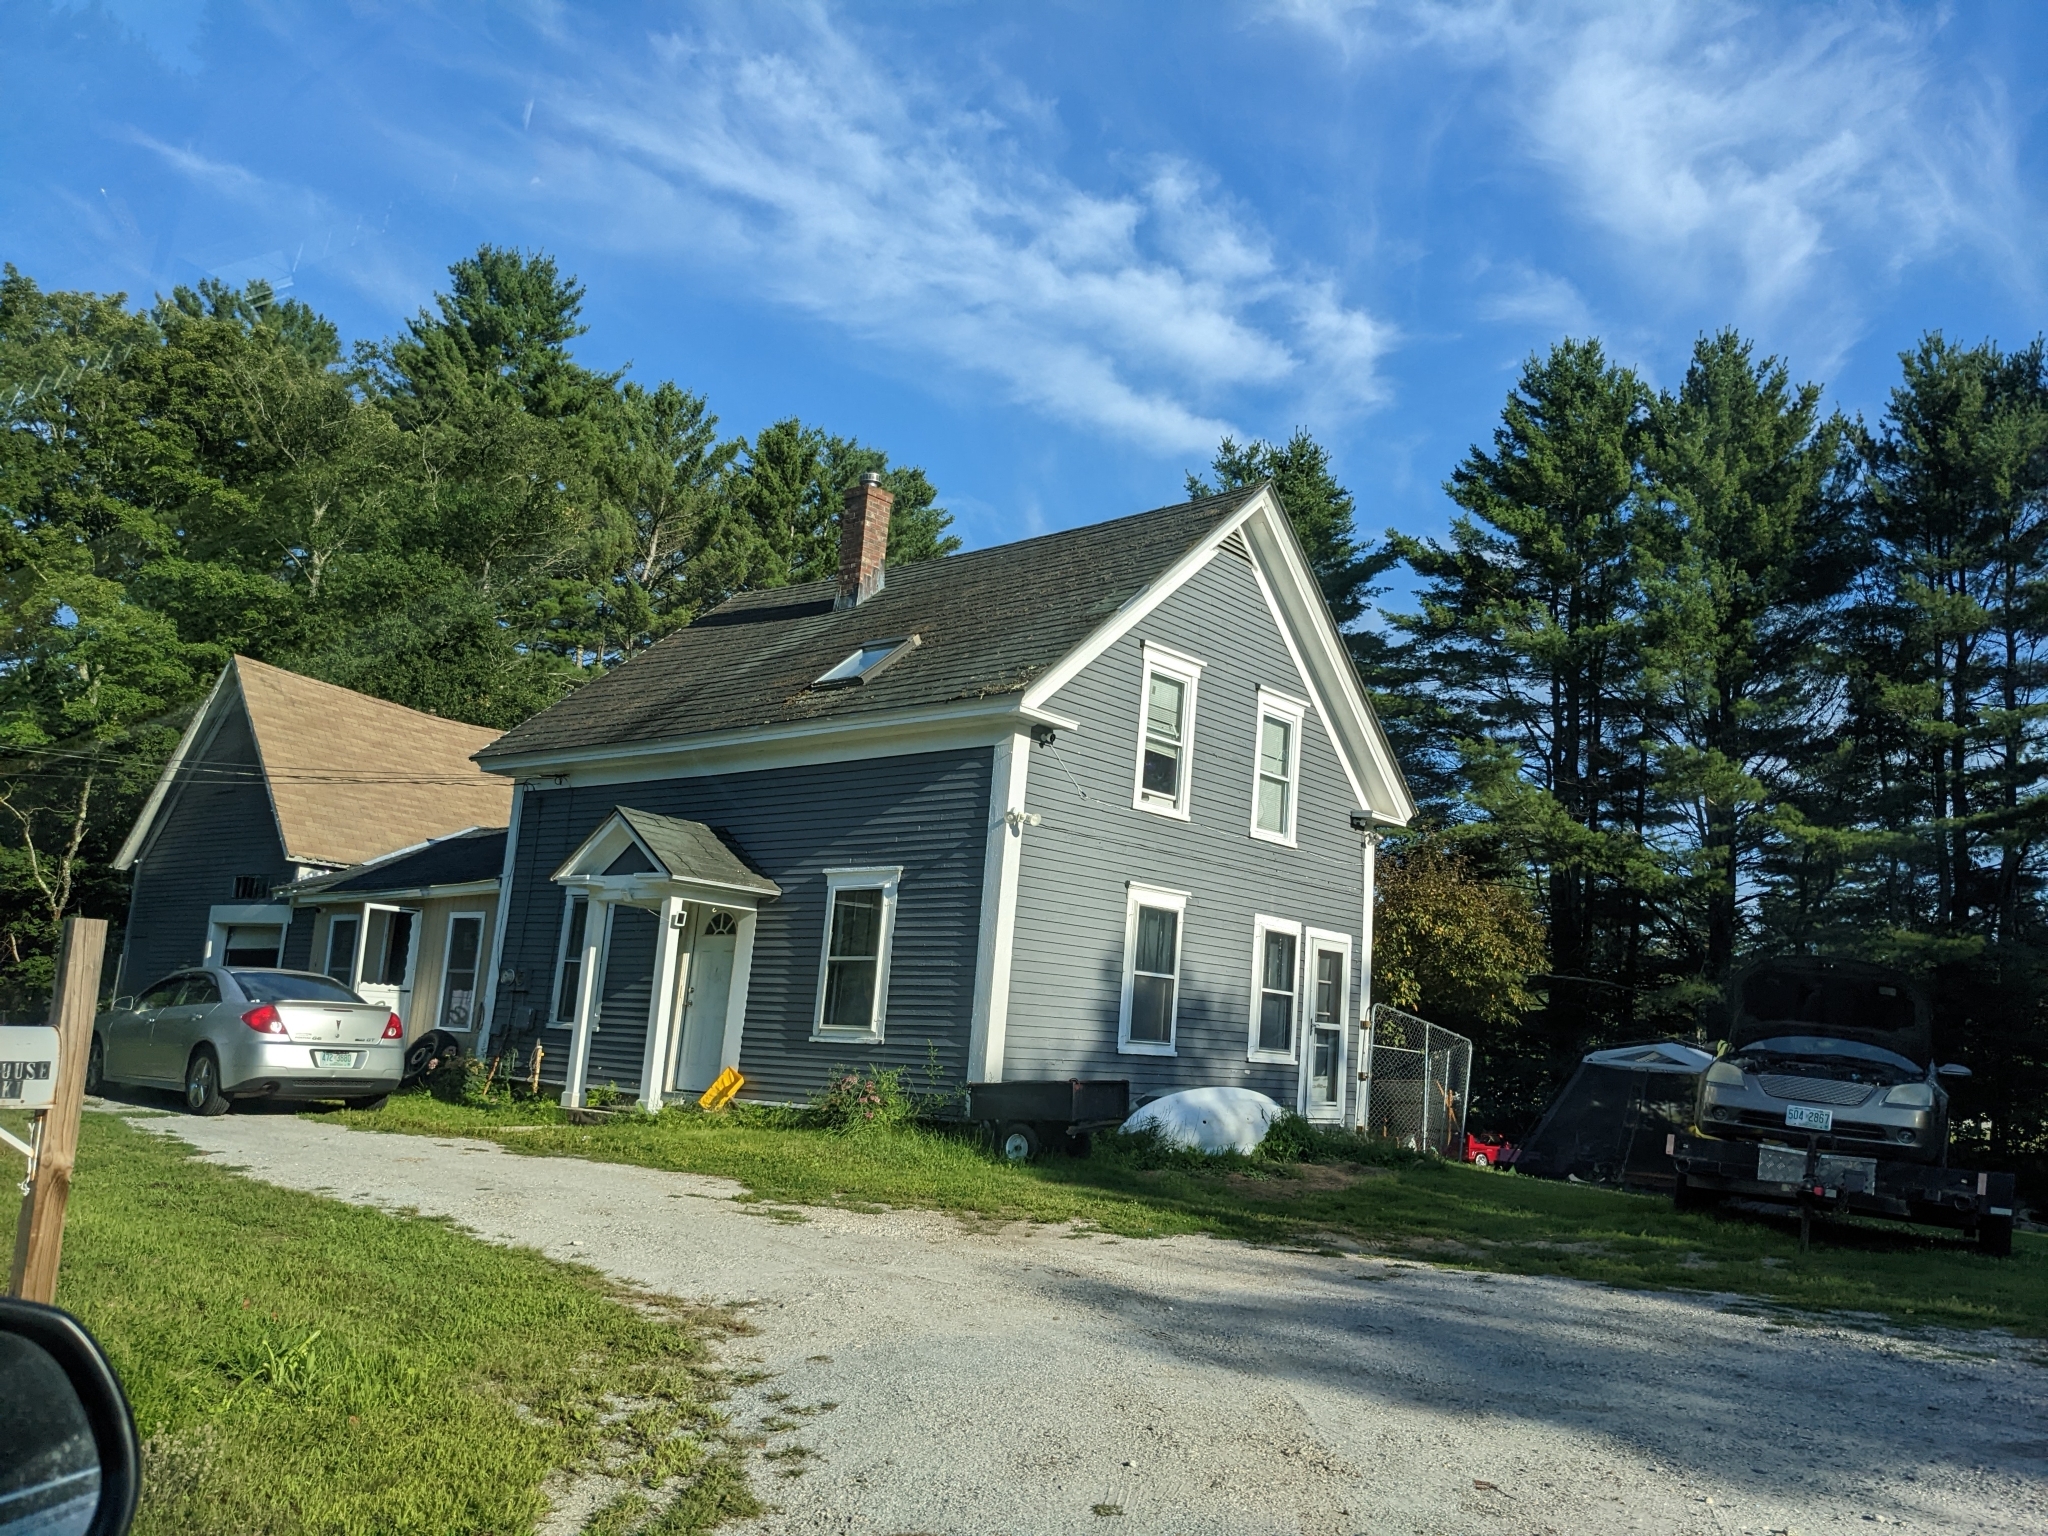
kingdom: Plantae
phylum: Tracheophyta
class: Pinopsida
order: Pinales
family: Pinaceae
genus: Pinus
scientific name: Pinus strobus
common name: Weymouth pine
